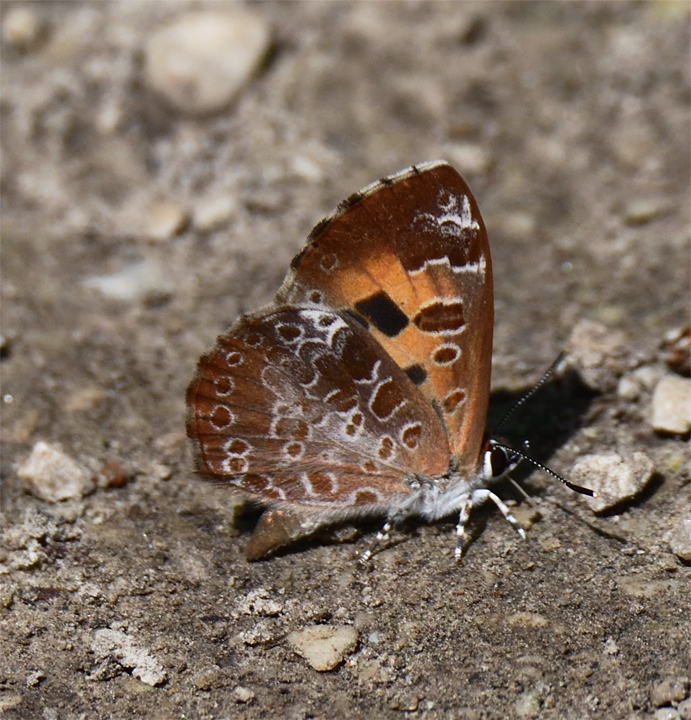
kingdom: Animalia
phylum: Arthropoda
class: Insecta
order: Lepidoptera
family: Lycaenidae
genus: Feniseca
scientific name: Feniseca tarquinius
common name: Harvester
